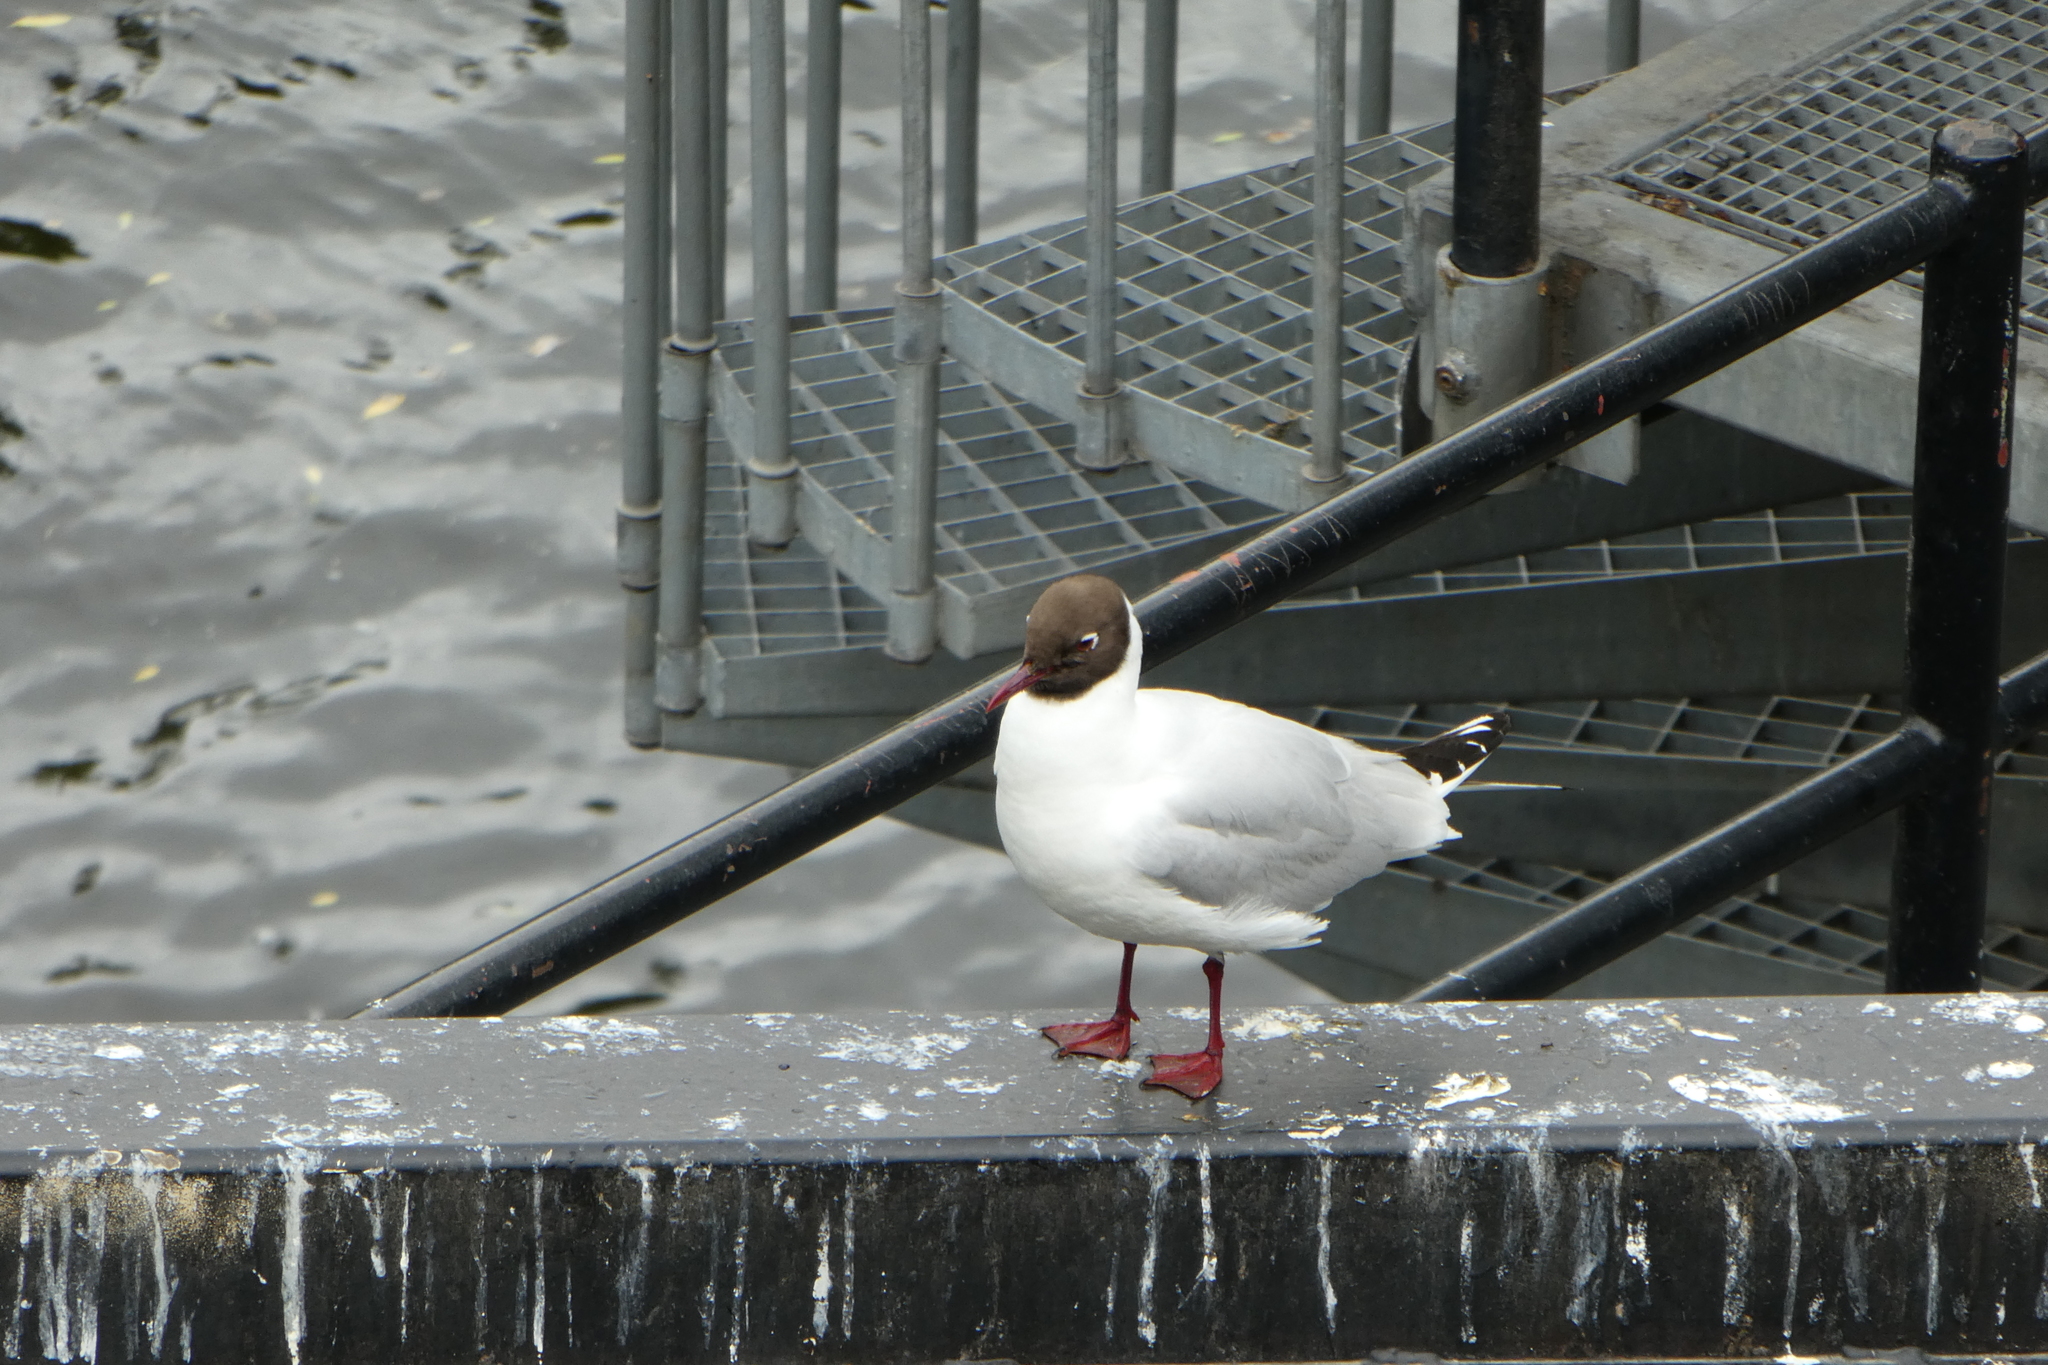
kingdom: Animalia
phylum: Chordata
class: Aves
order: Charadriiformes
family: Laridae
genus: Chroicocephalus
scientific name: Chroicocephalus ridibundus
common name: Black-headed gull
